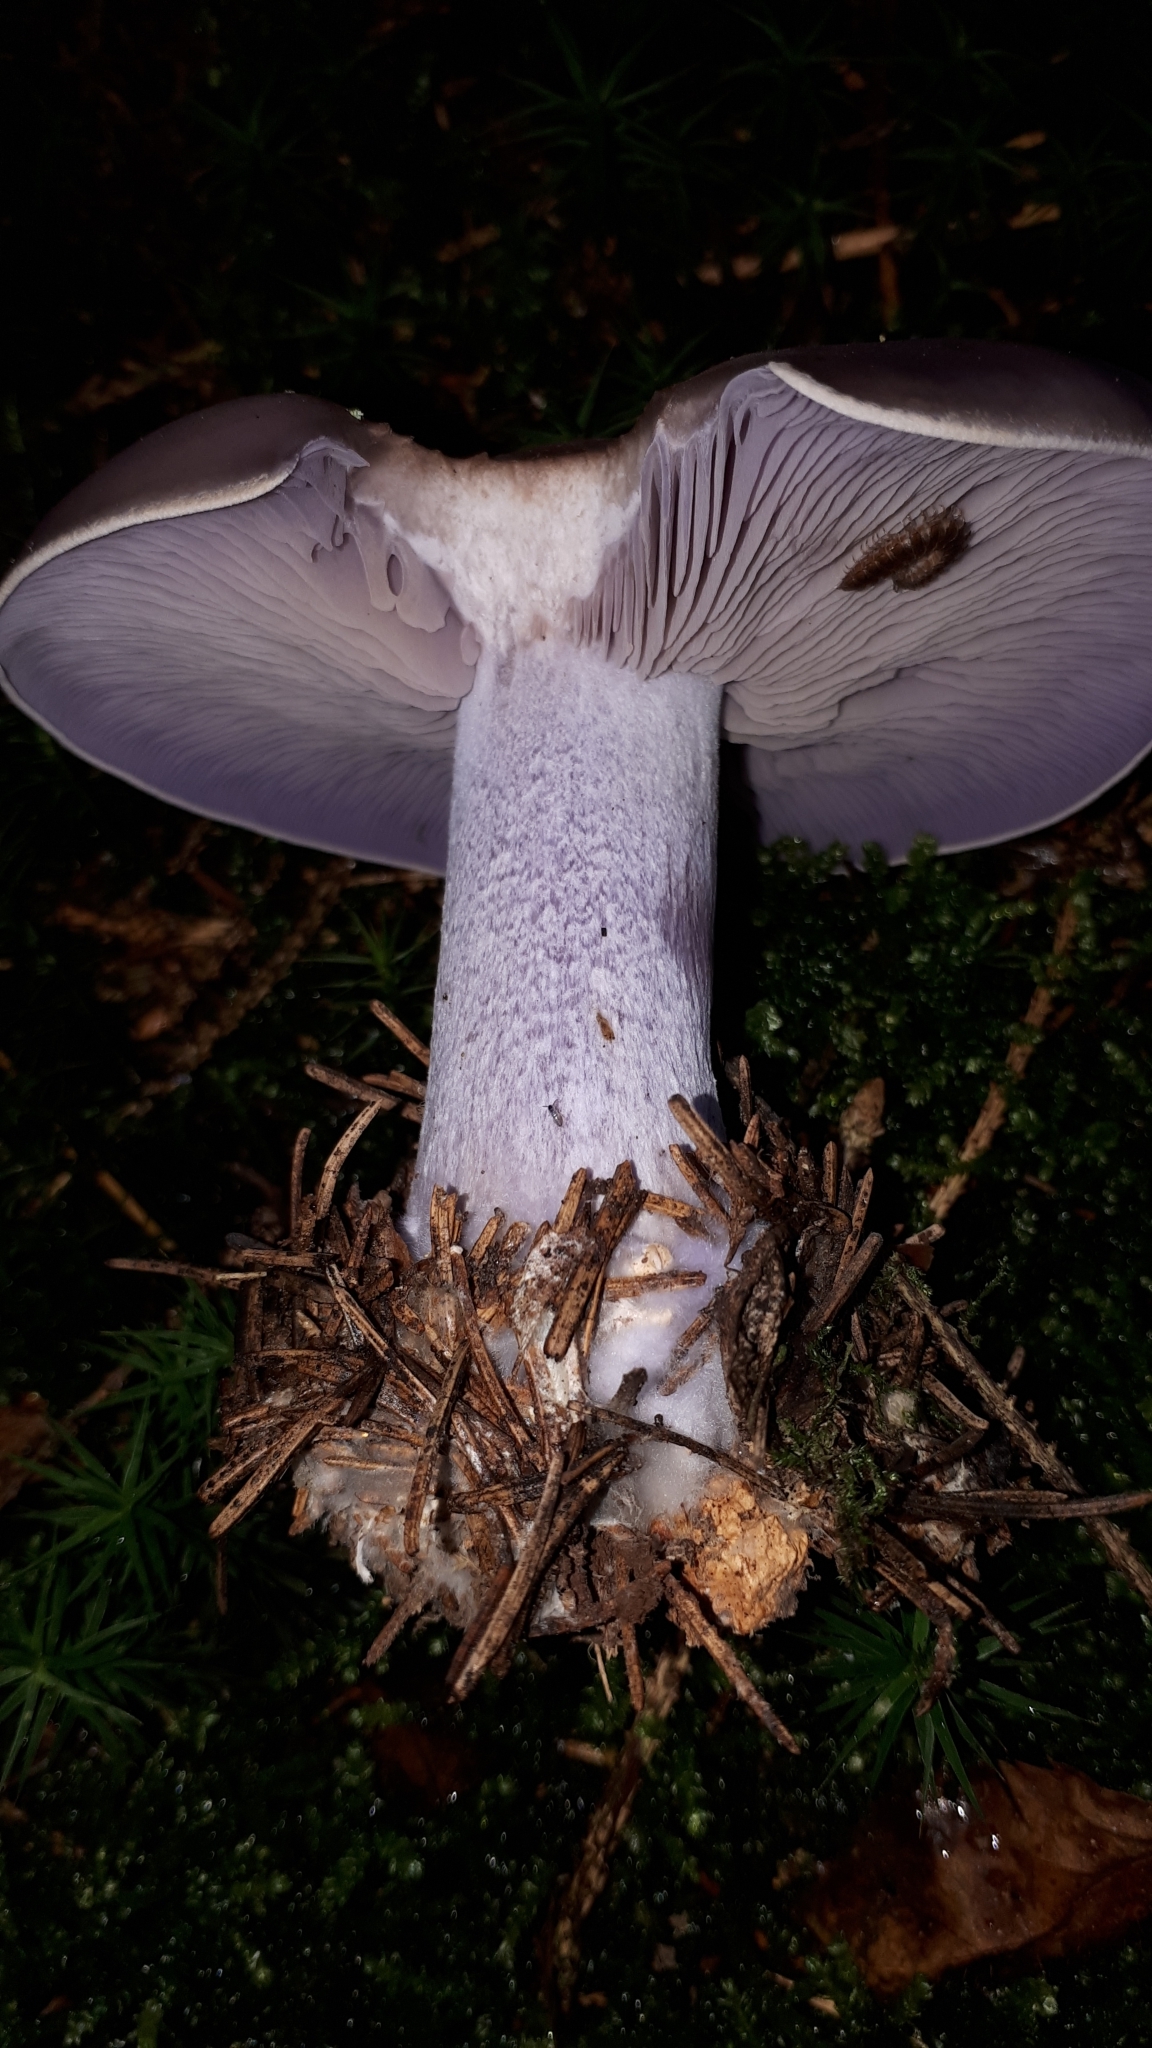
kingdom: Fungi
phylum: Basidiomycota
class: Agaricomycetes
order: Agaricales
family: Tricholomataceae
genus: Collybia
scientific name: Collybia
